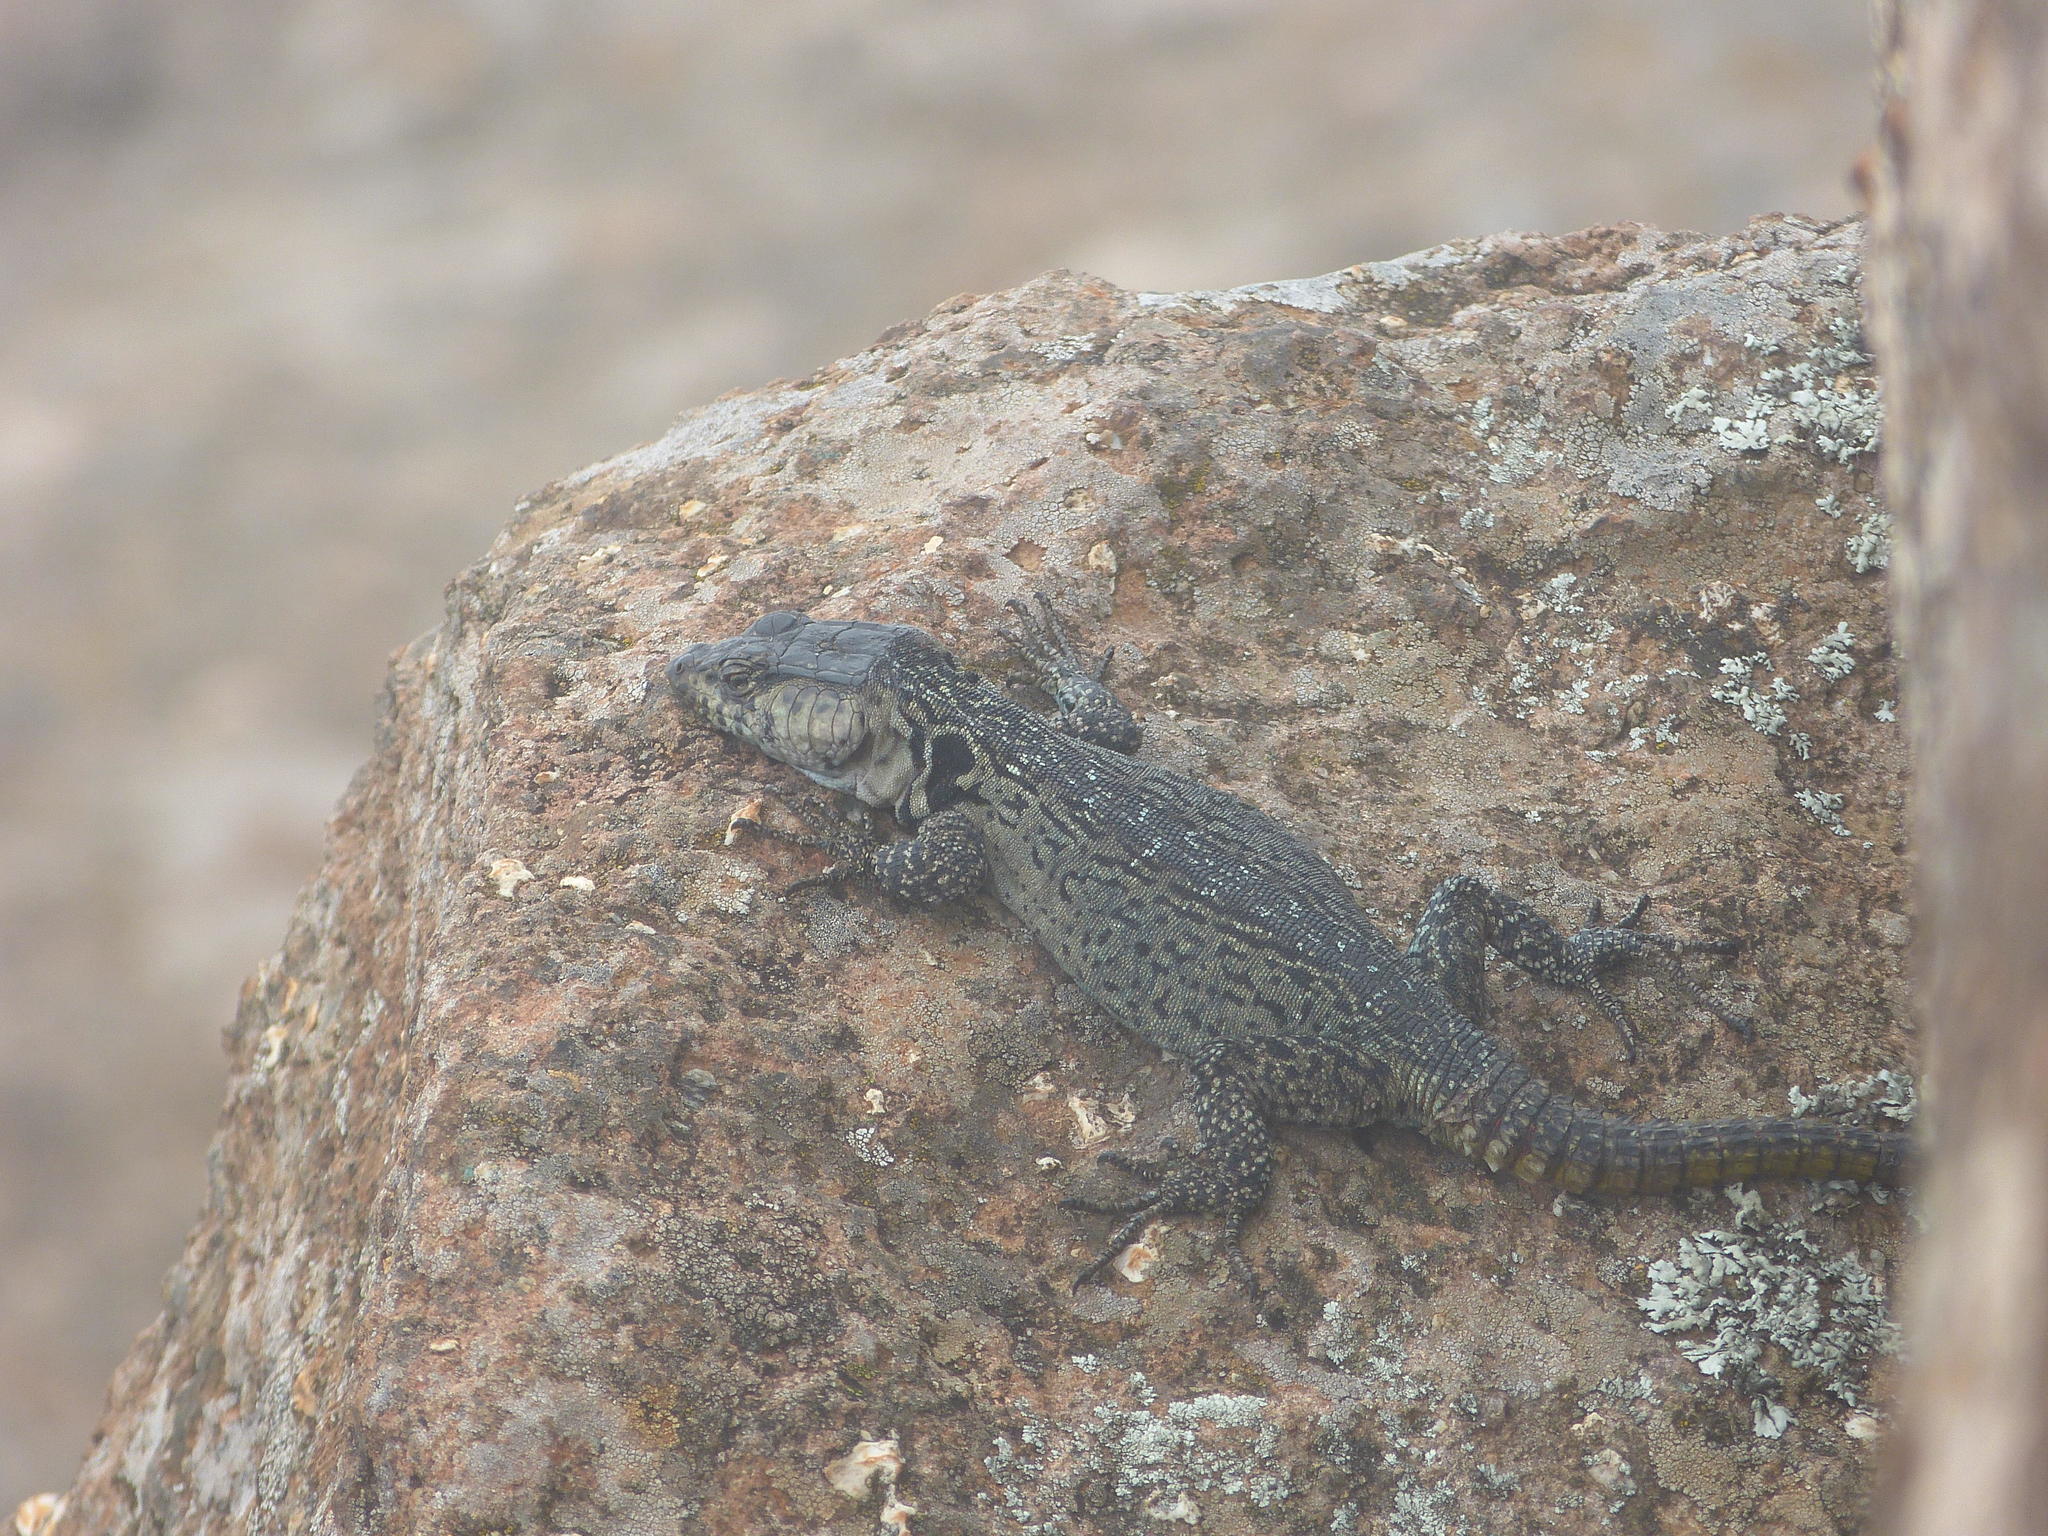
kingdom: Animalia
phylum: Chordata
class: Squamata
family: Cordylidae
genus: Pseudocordylus
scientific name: Pseudocordylus subviridis
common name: Drakensberg crag lizard
